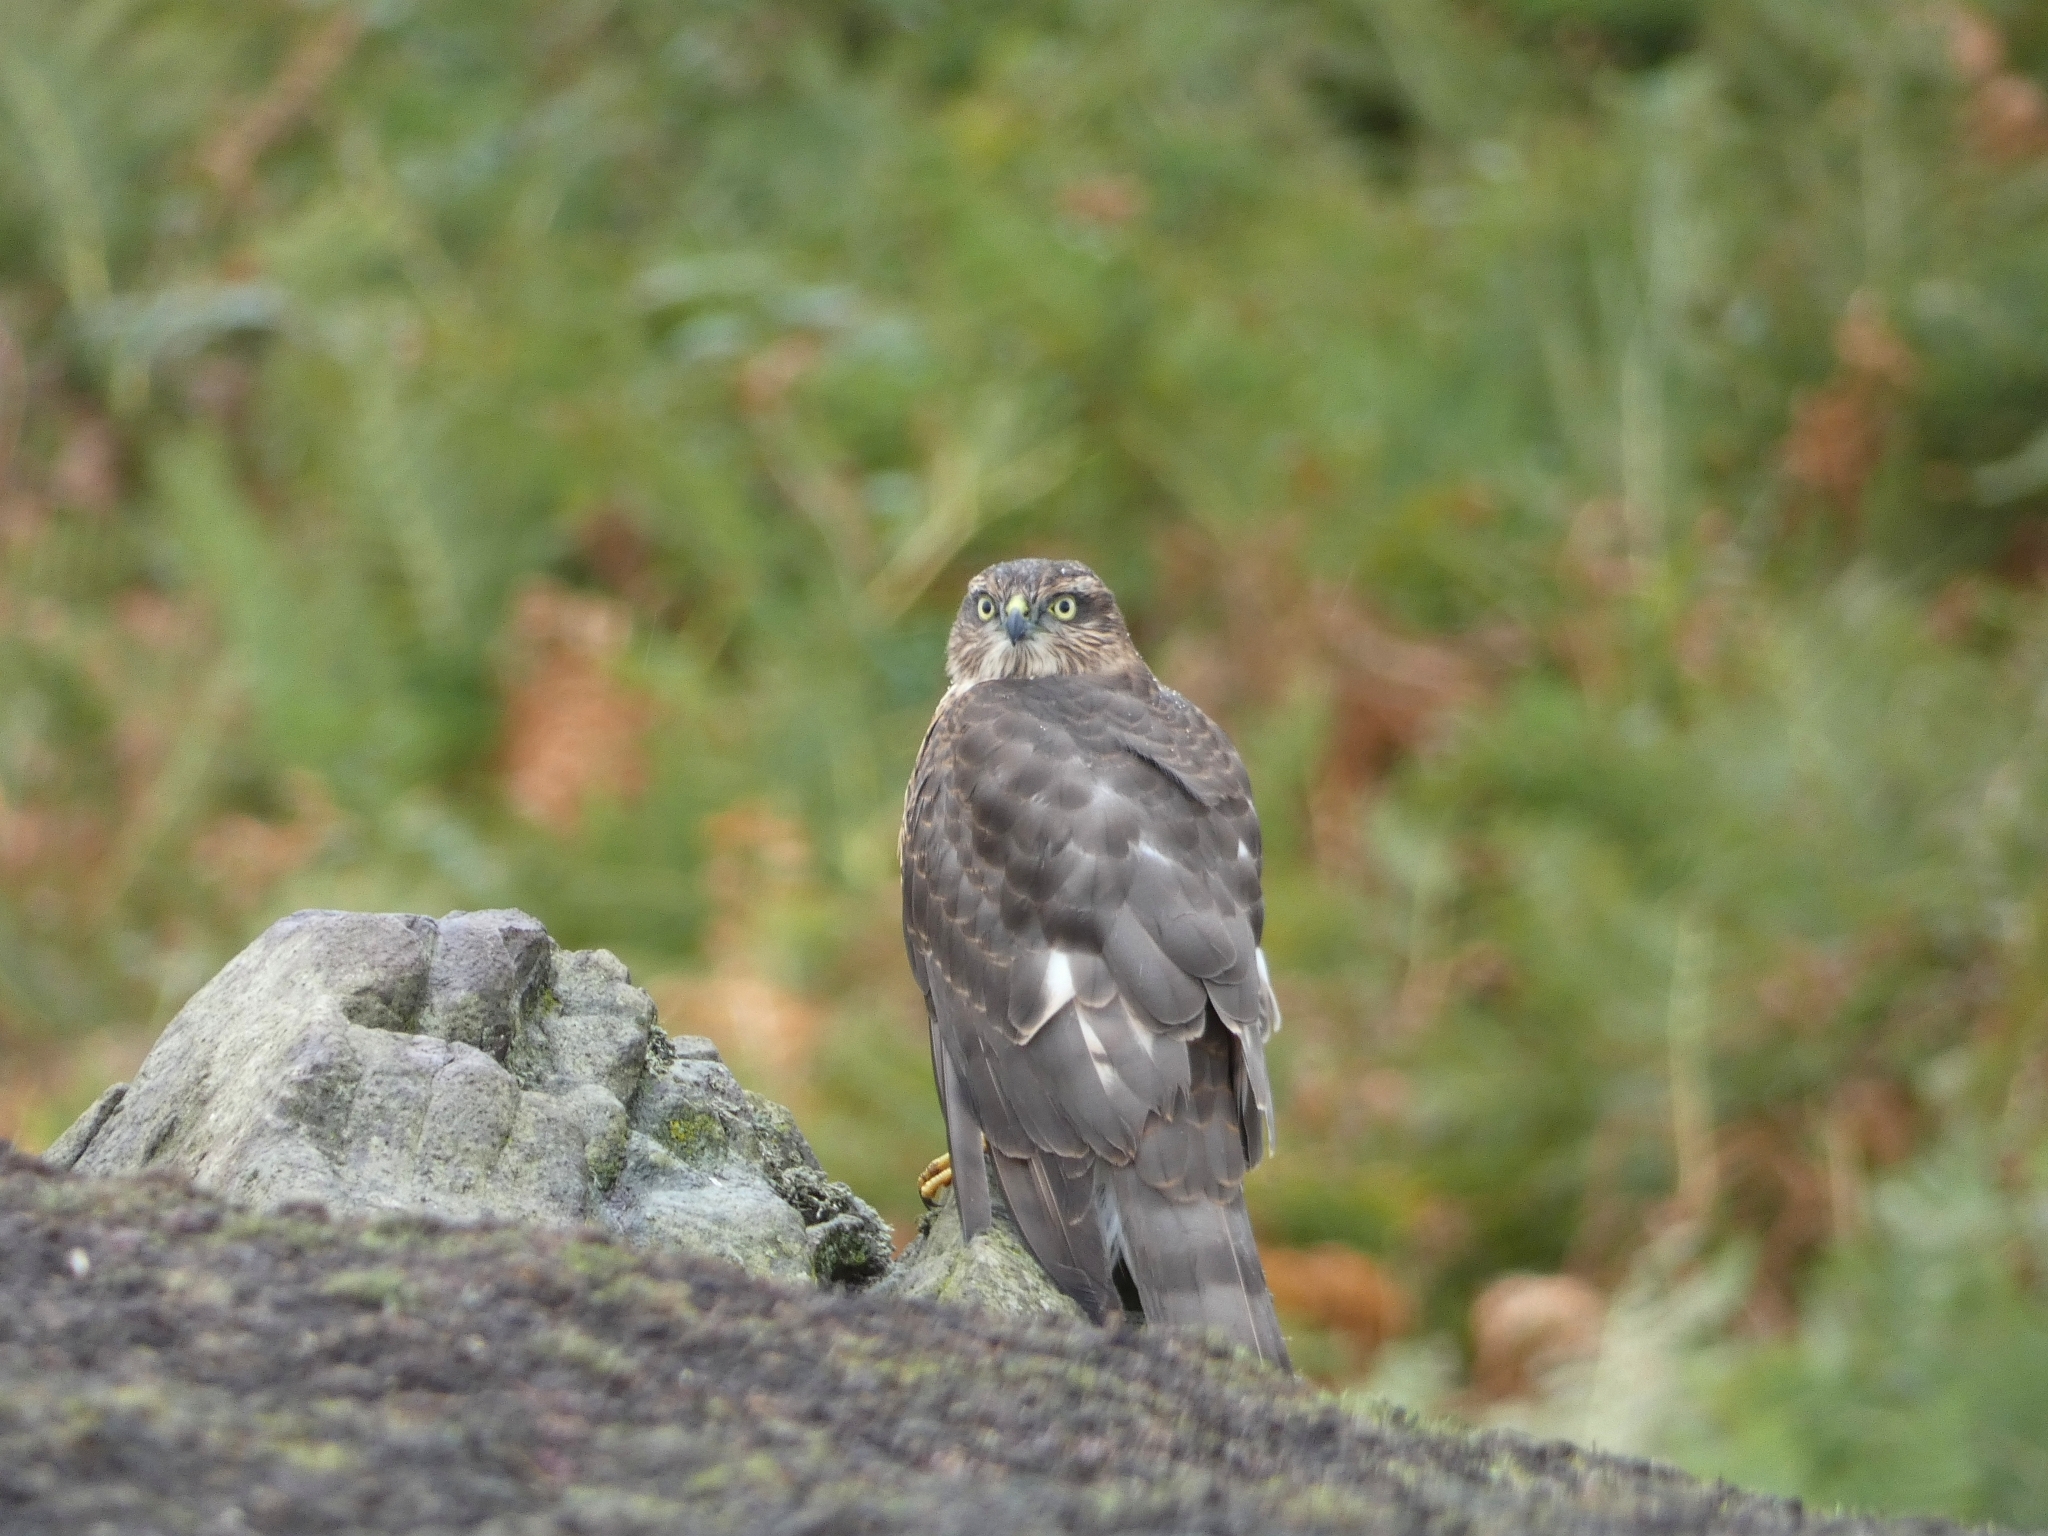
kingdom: Animalia
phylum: Chordata
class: Aves
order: Accipitriformes
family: Accipitridae
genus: Accipiter
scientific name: Accipiter nisus
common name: Eurasian sparrowhawk
